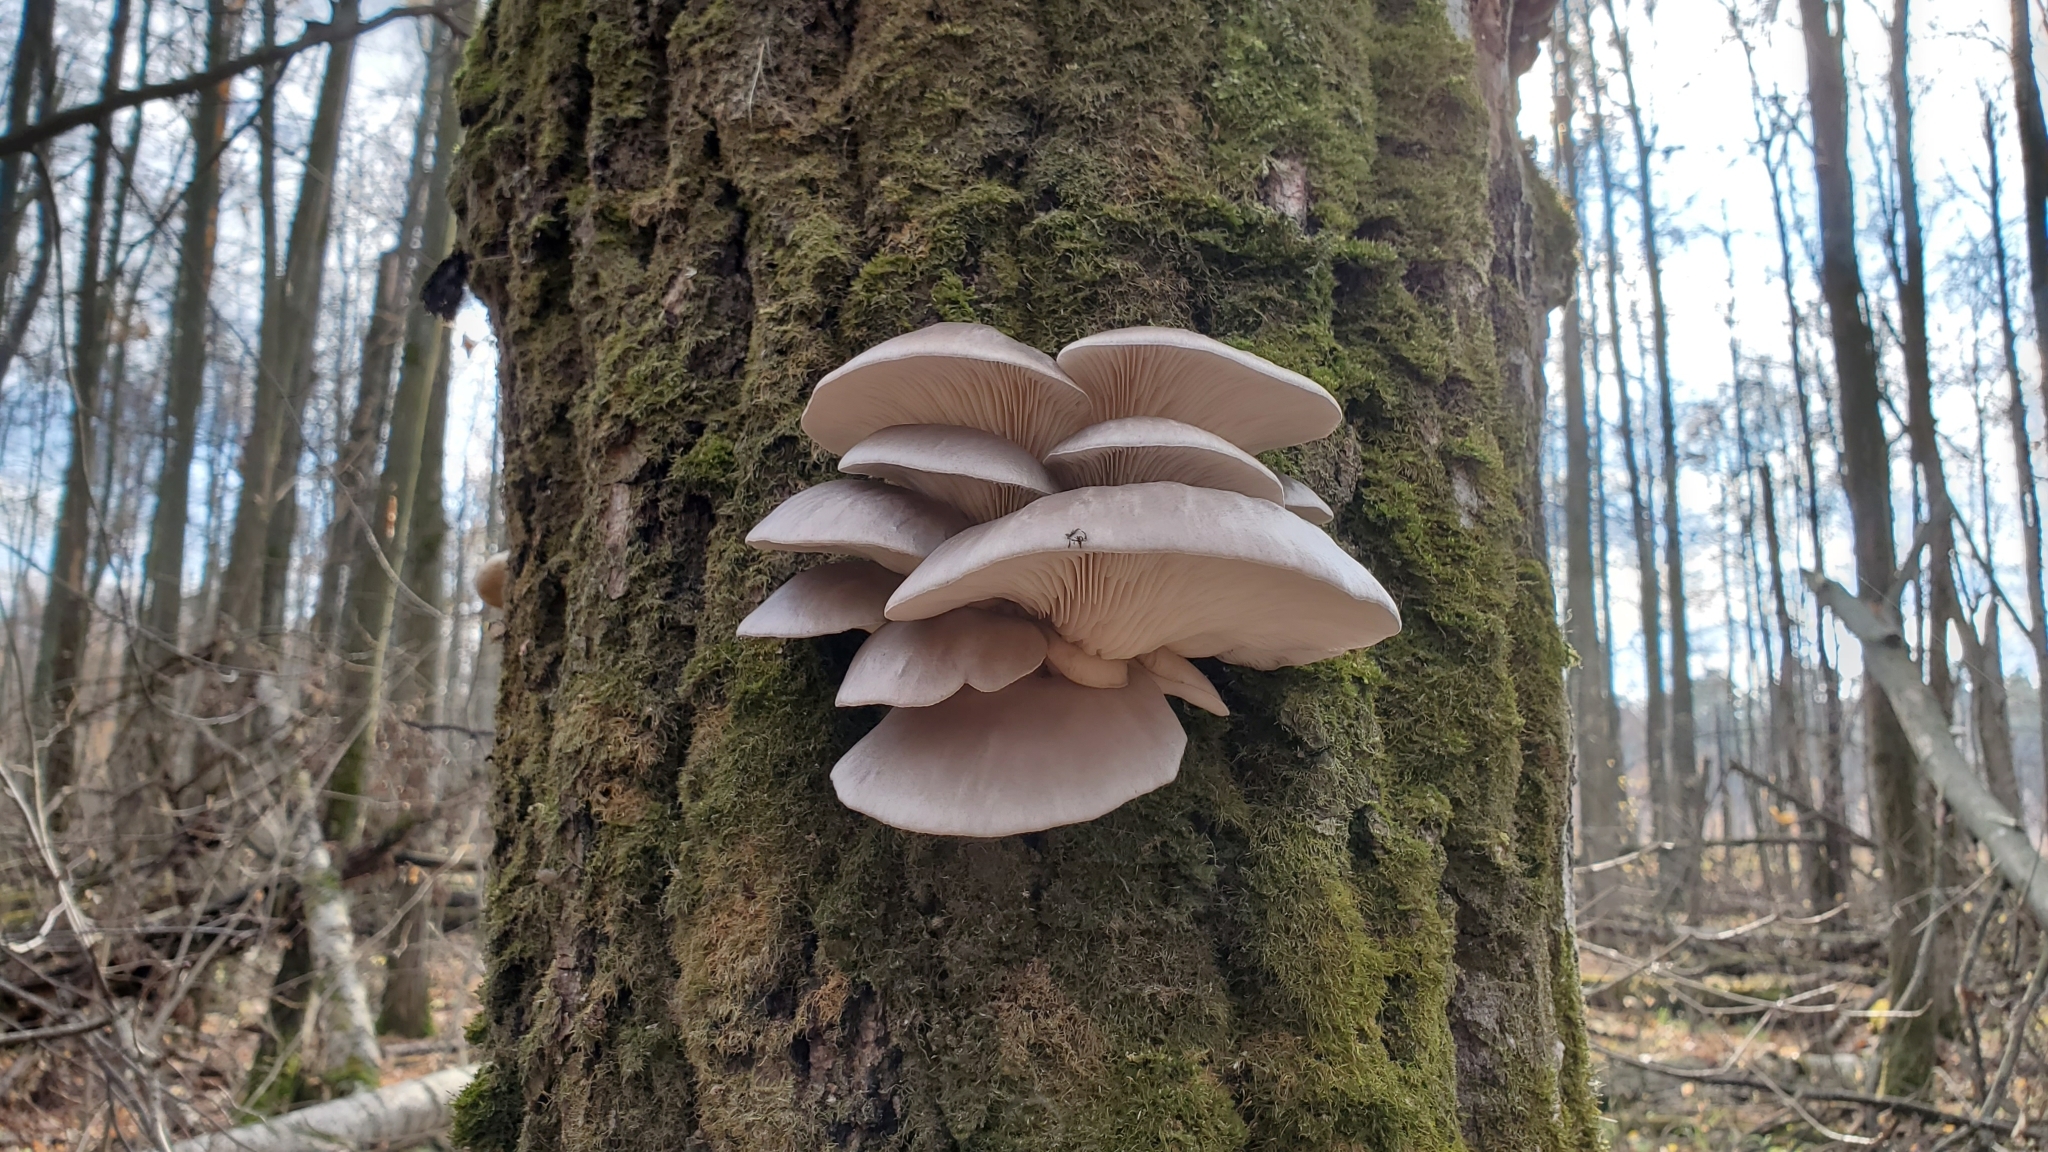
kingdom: Fungi
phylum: Basidiomycota
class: Agaricomycetes
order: Agaricales
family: Pleurotaceae
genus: Pleurotus
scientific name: Pleurotus ostreatus
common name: Oyster mushroom
